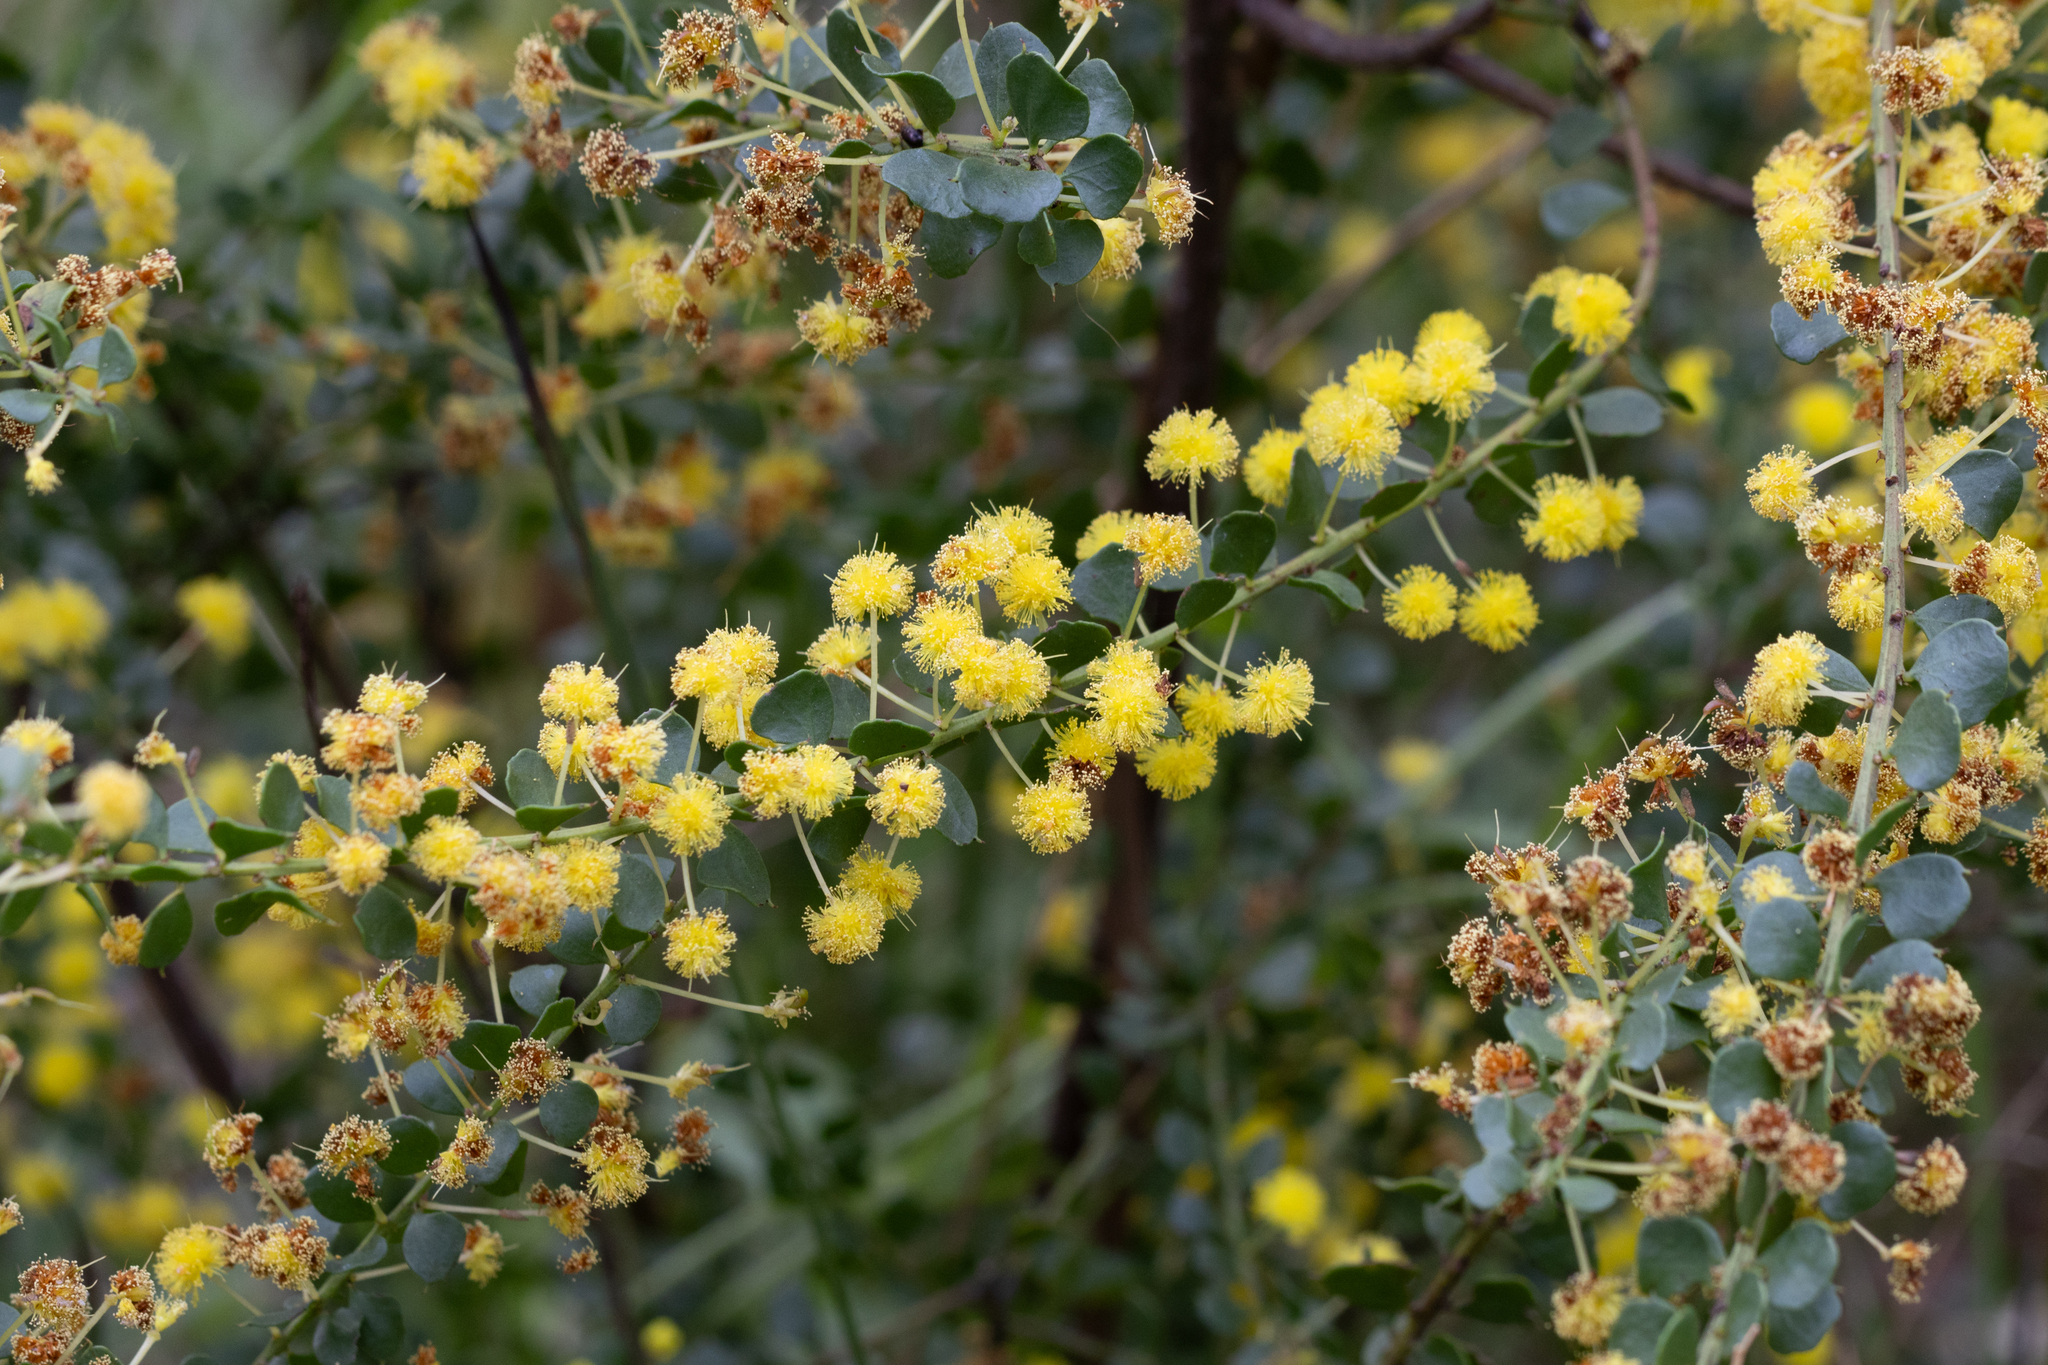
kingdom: Plantae
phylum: Tracheophyta
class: Magnoliopsida
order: Fabales
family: Fabaceae
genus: Acacia
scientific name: Acacia acinacea
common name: Gold-dust acacia
